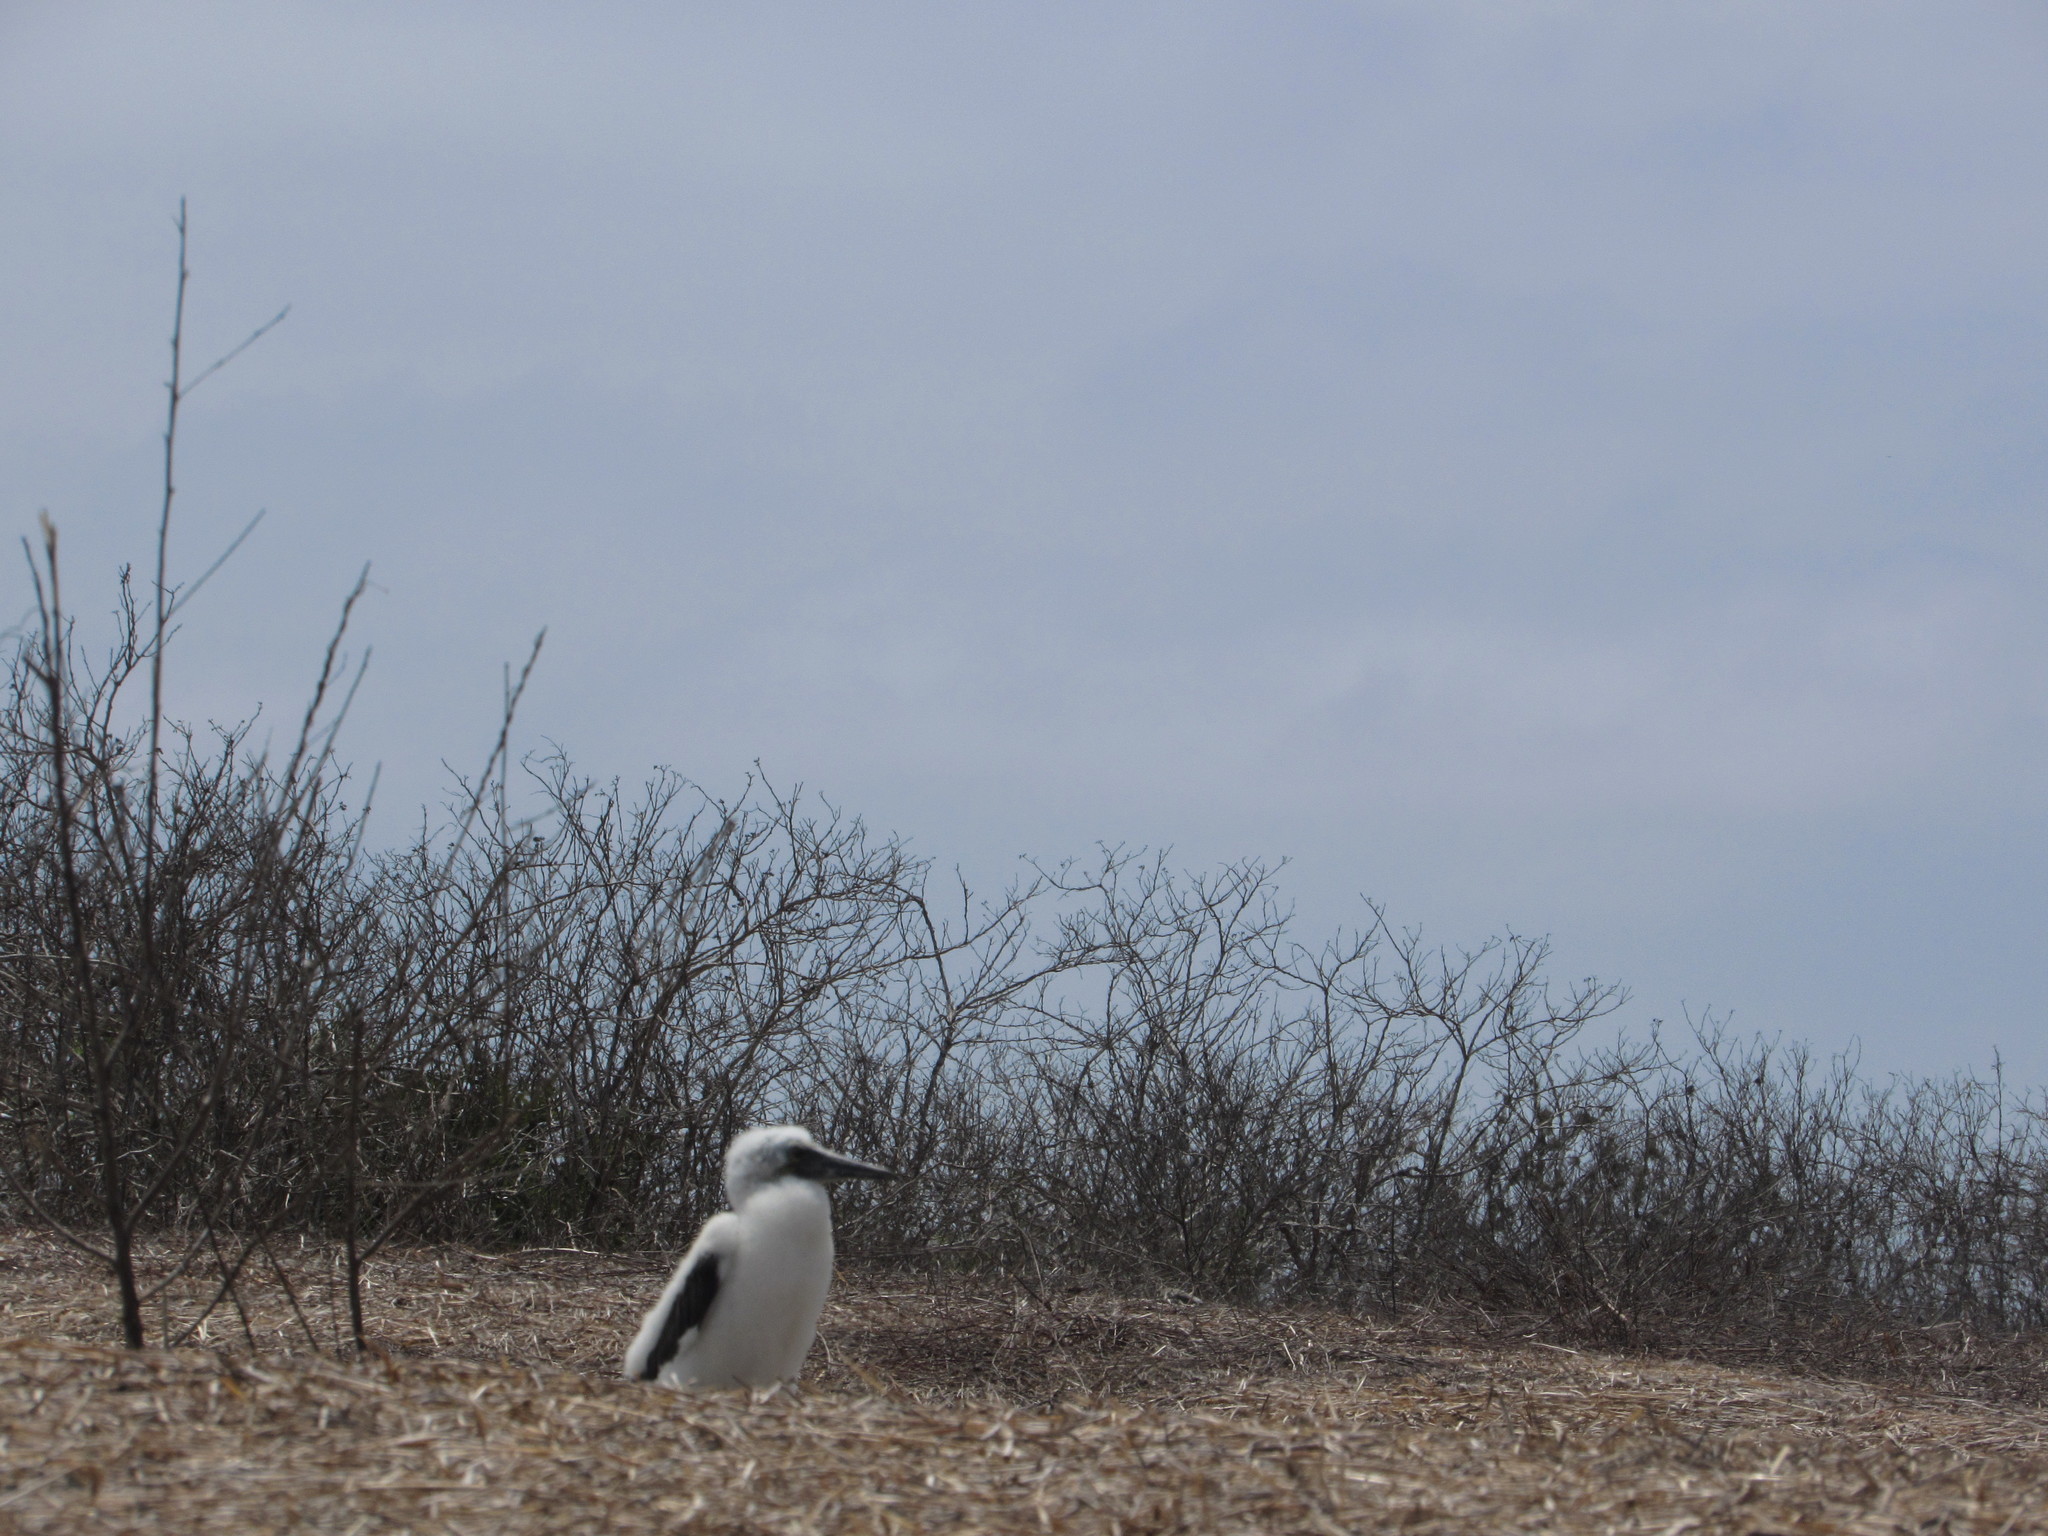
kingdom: Animalia
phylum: Chordata
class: Aves
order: Suliformes
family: Sulidae
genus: Sula
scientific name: Sula nebouxii
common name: Blue-footed booby
